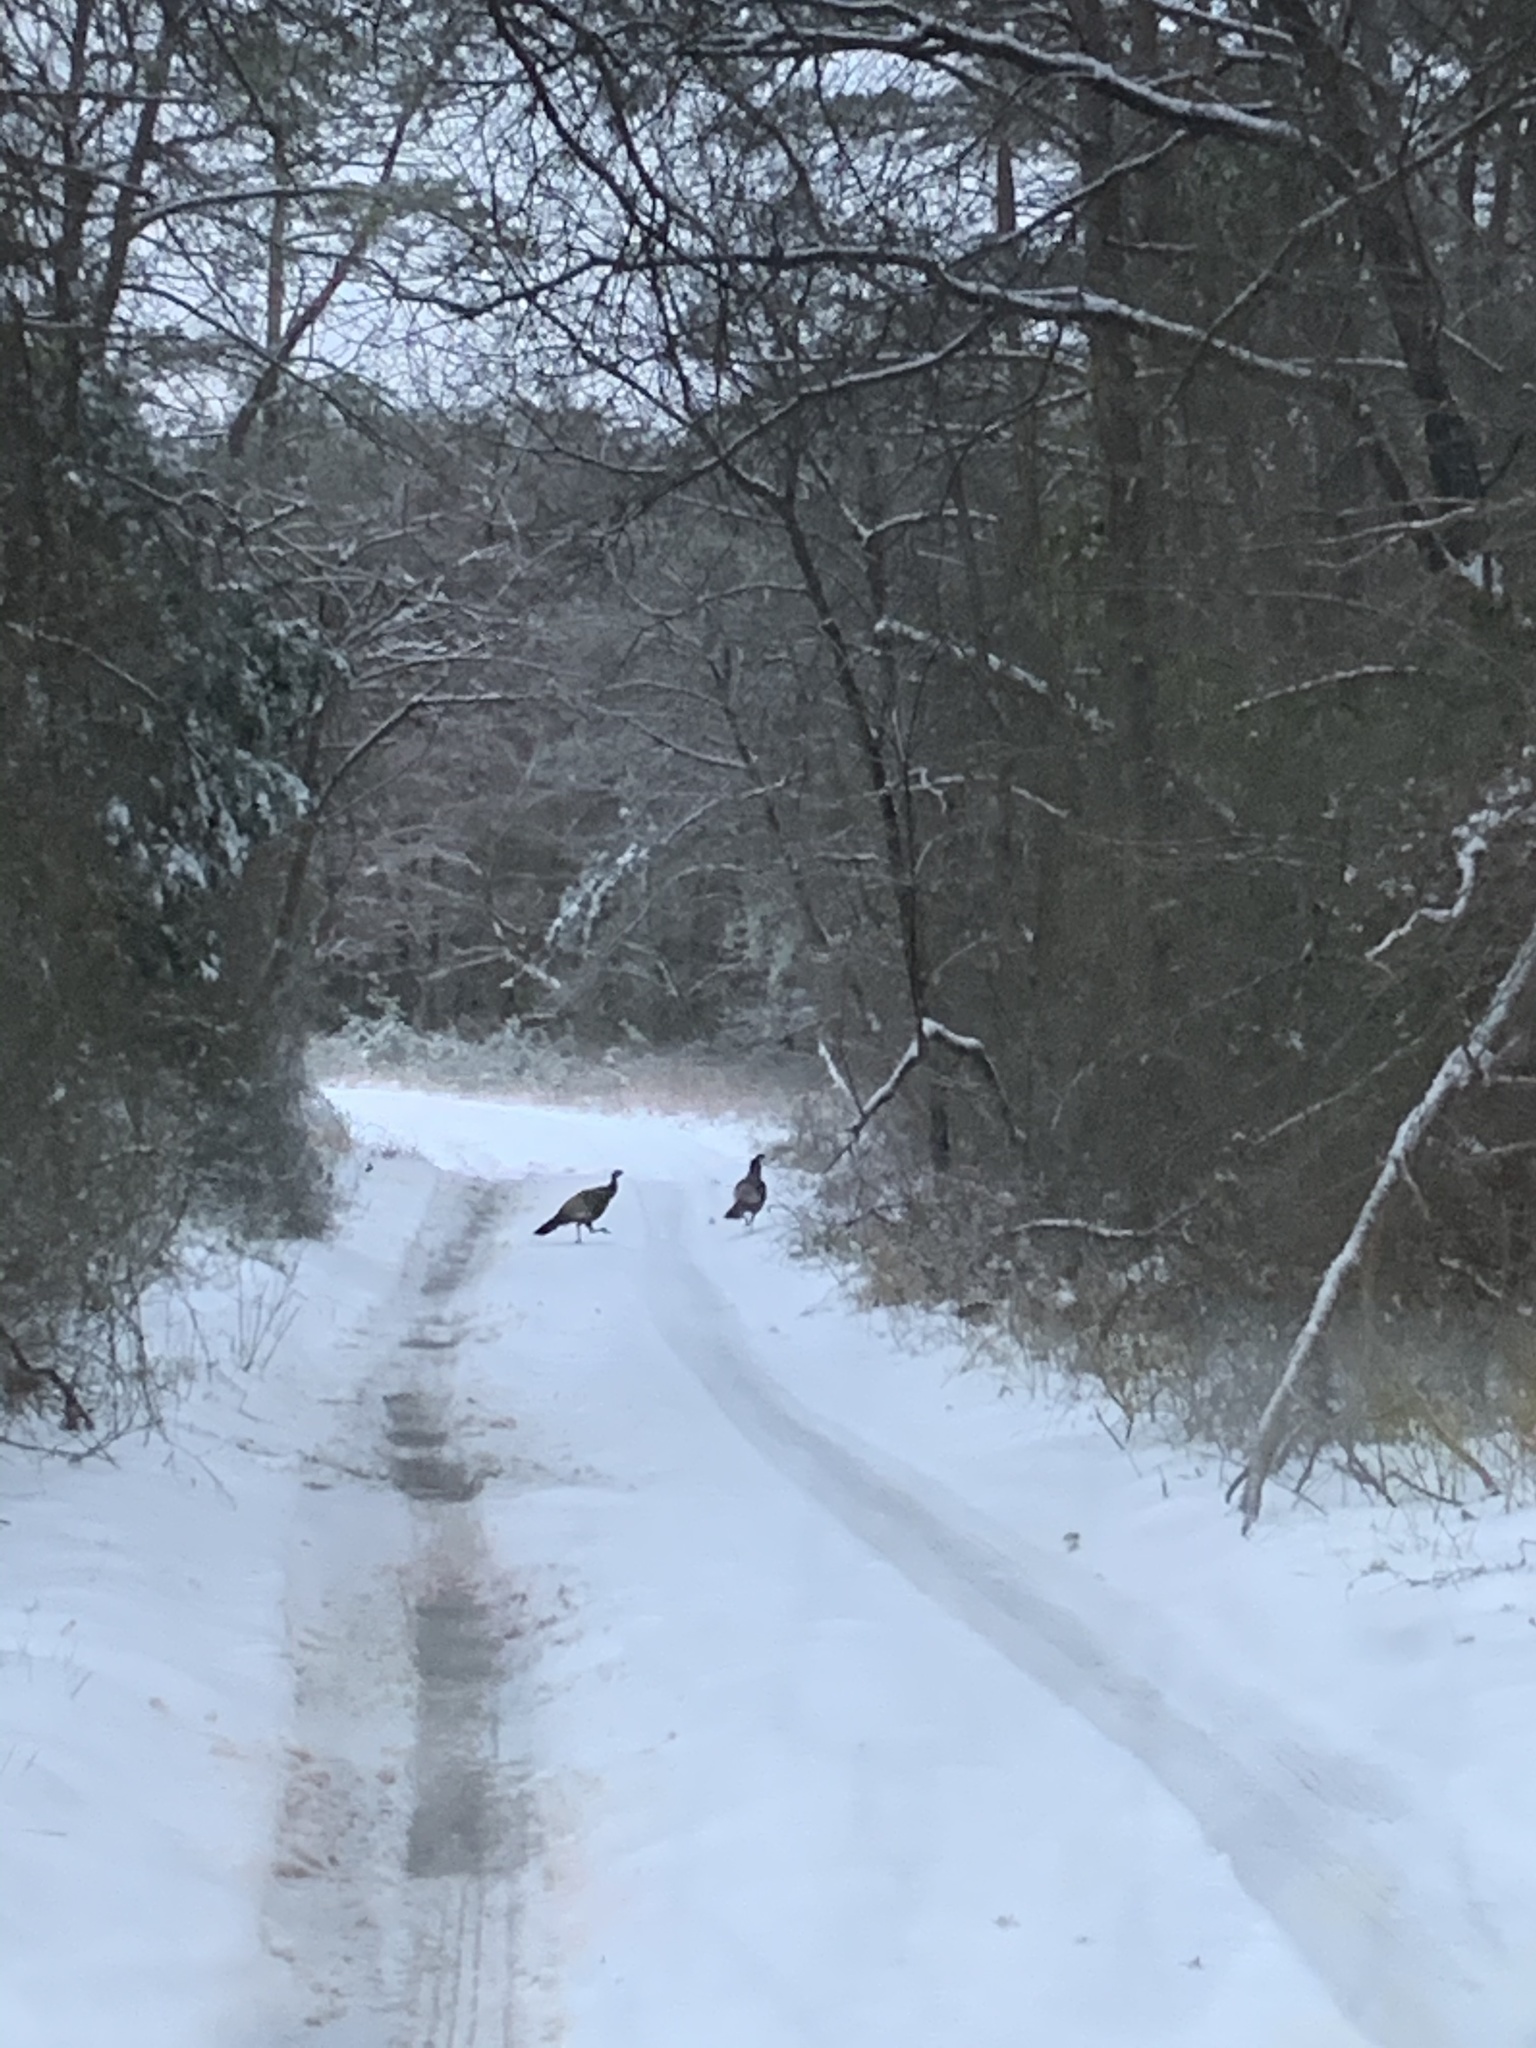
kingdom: Animalia
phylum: Chordata
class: Aves
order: Galliformes
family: Phasianidae
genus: Meleagris
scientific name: Meleagris gallopavo
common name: Wild turkey
